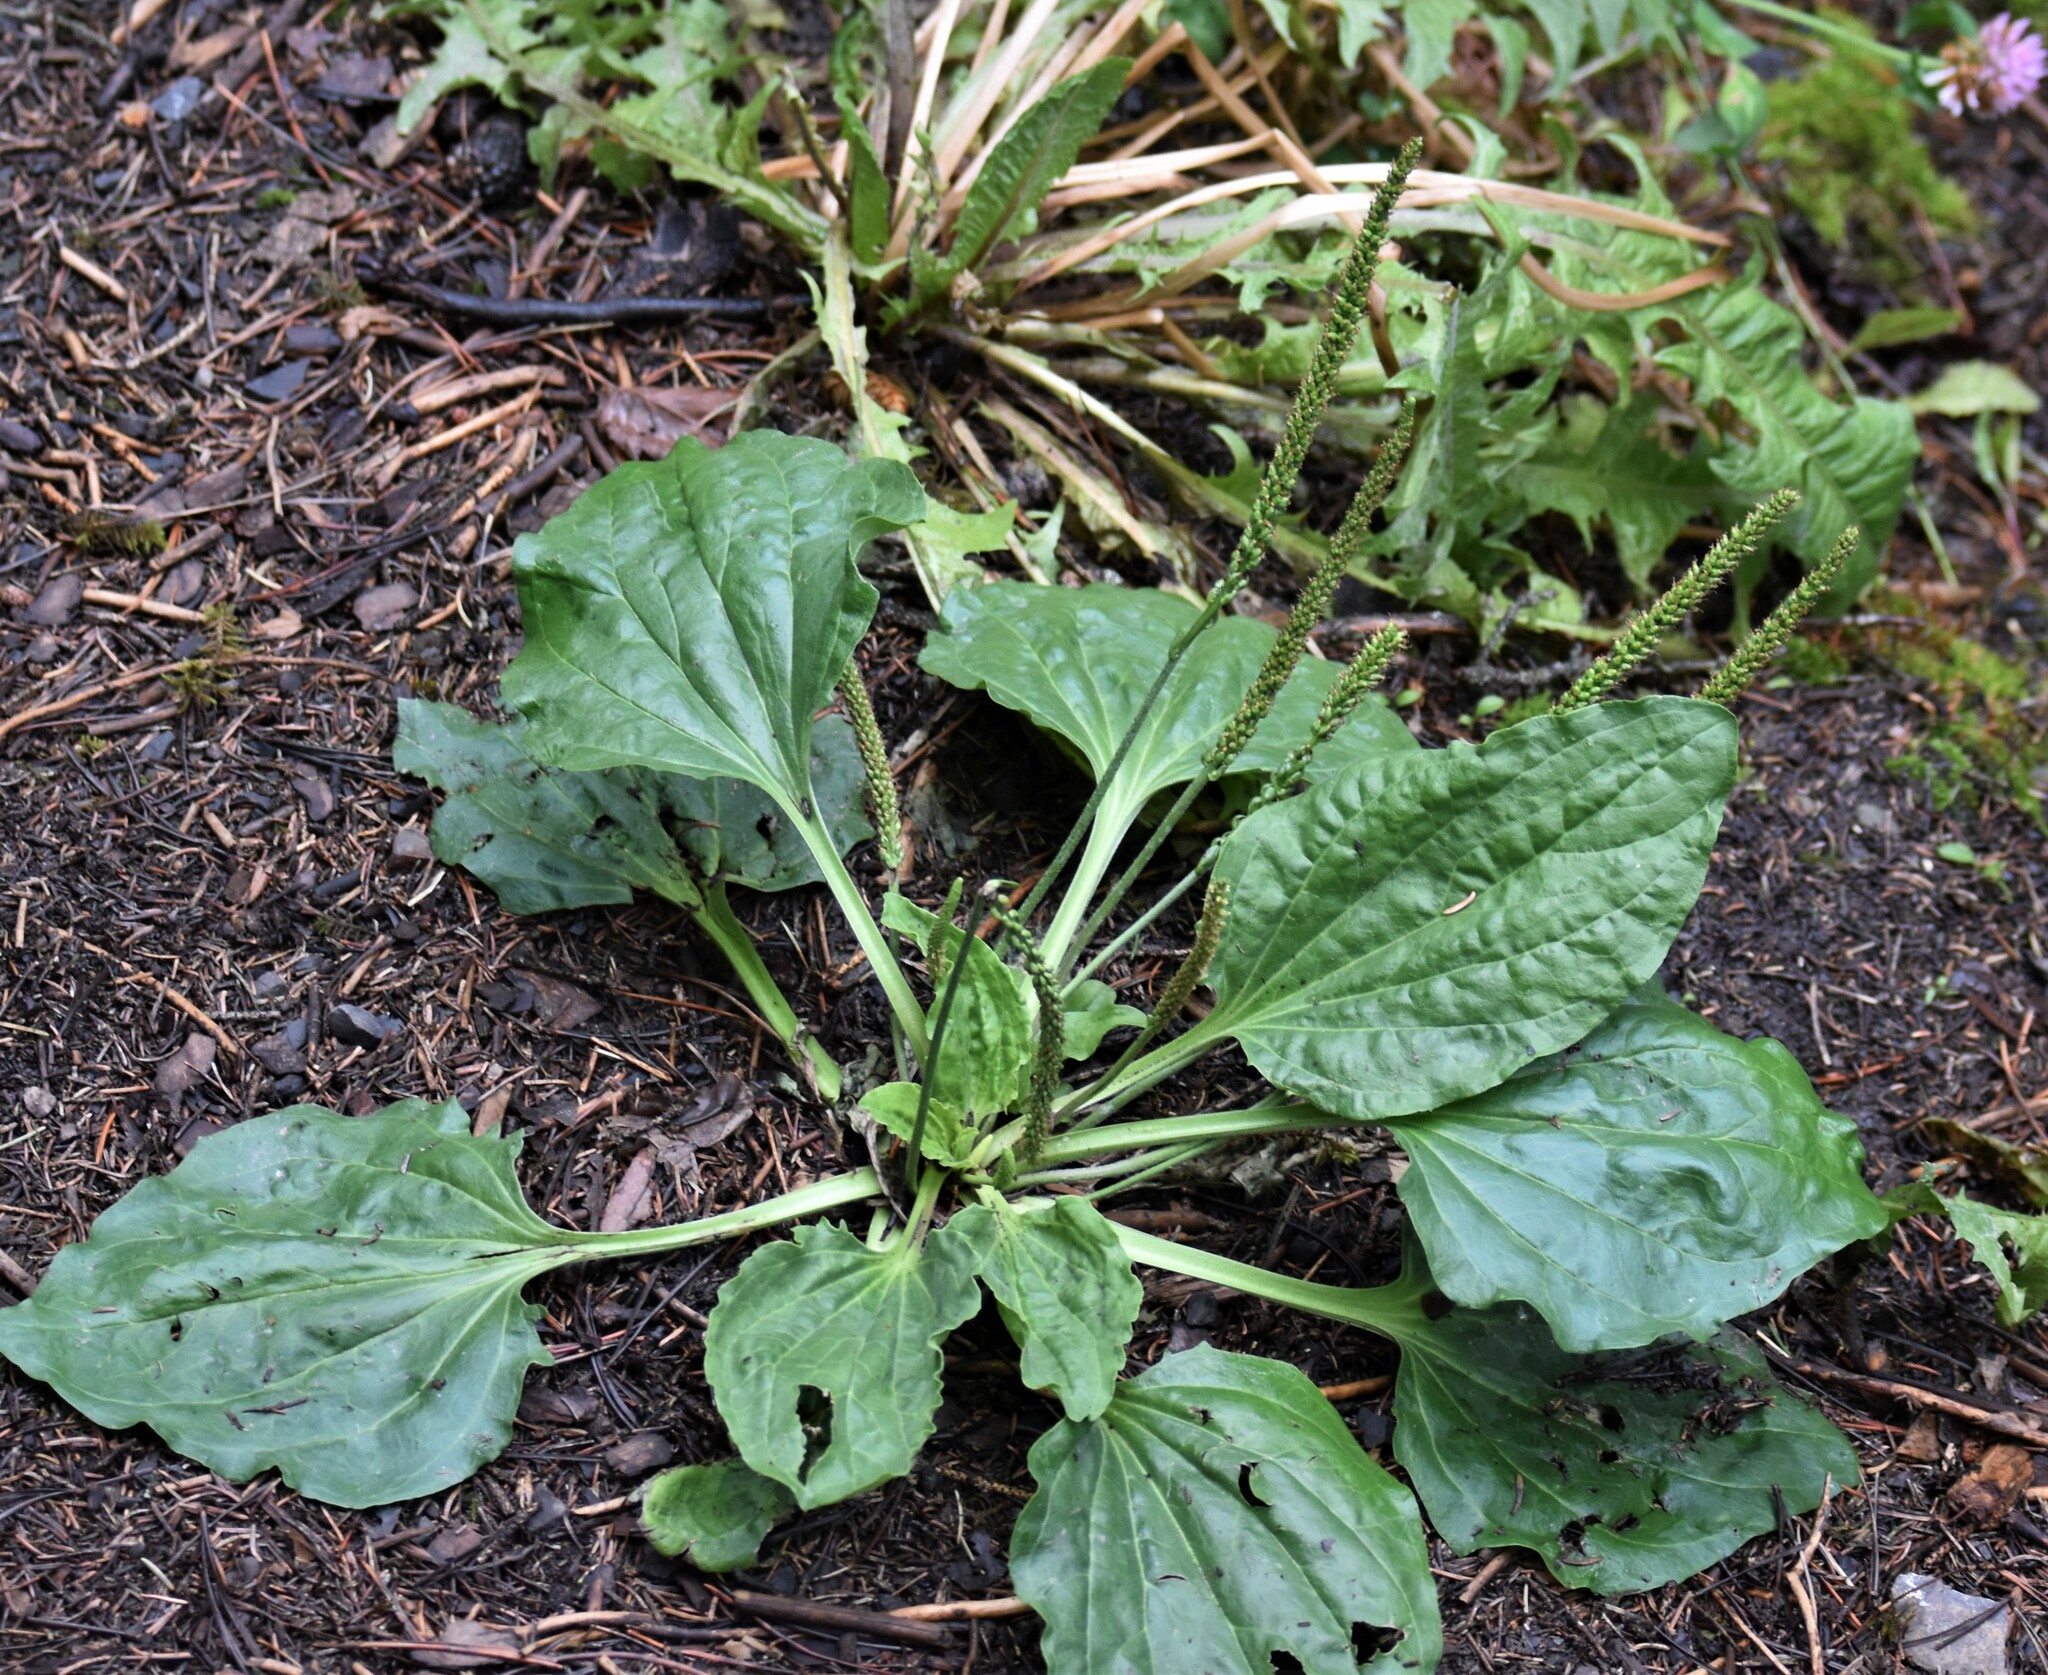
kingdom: Plantae
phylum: Tracheophyta
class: Magnoliopsida
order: Lamiales
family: Plantaginaceae
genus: Plantago
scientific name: Plantago major
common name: Common plantain
